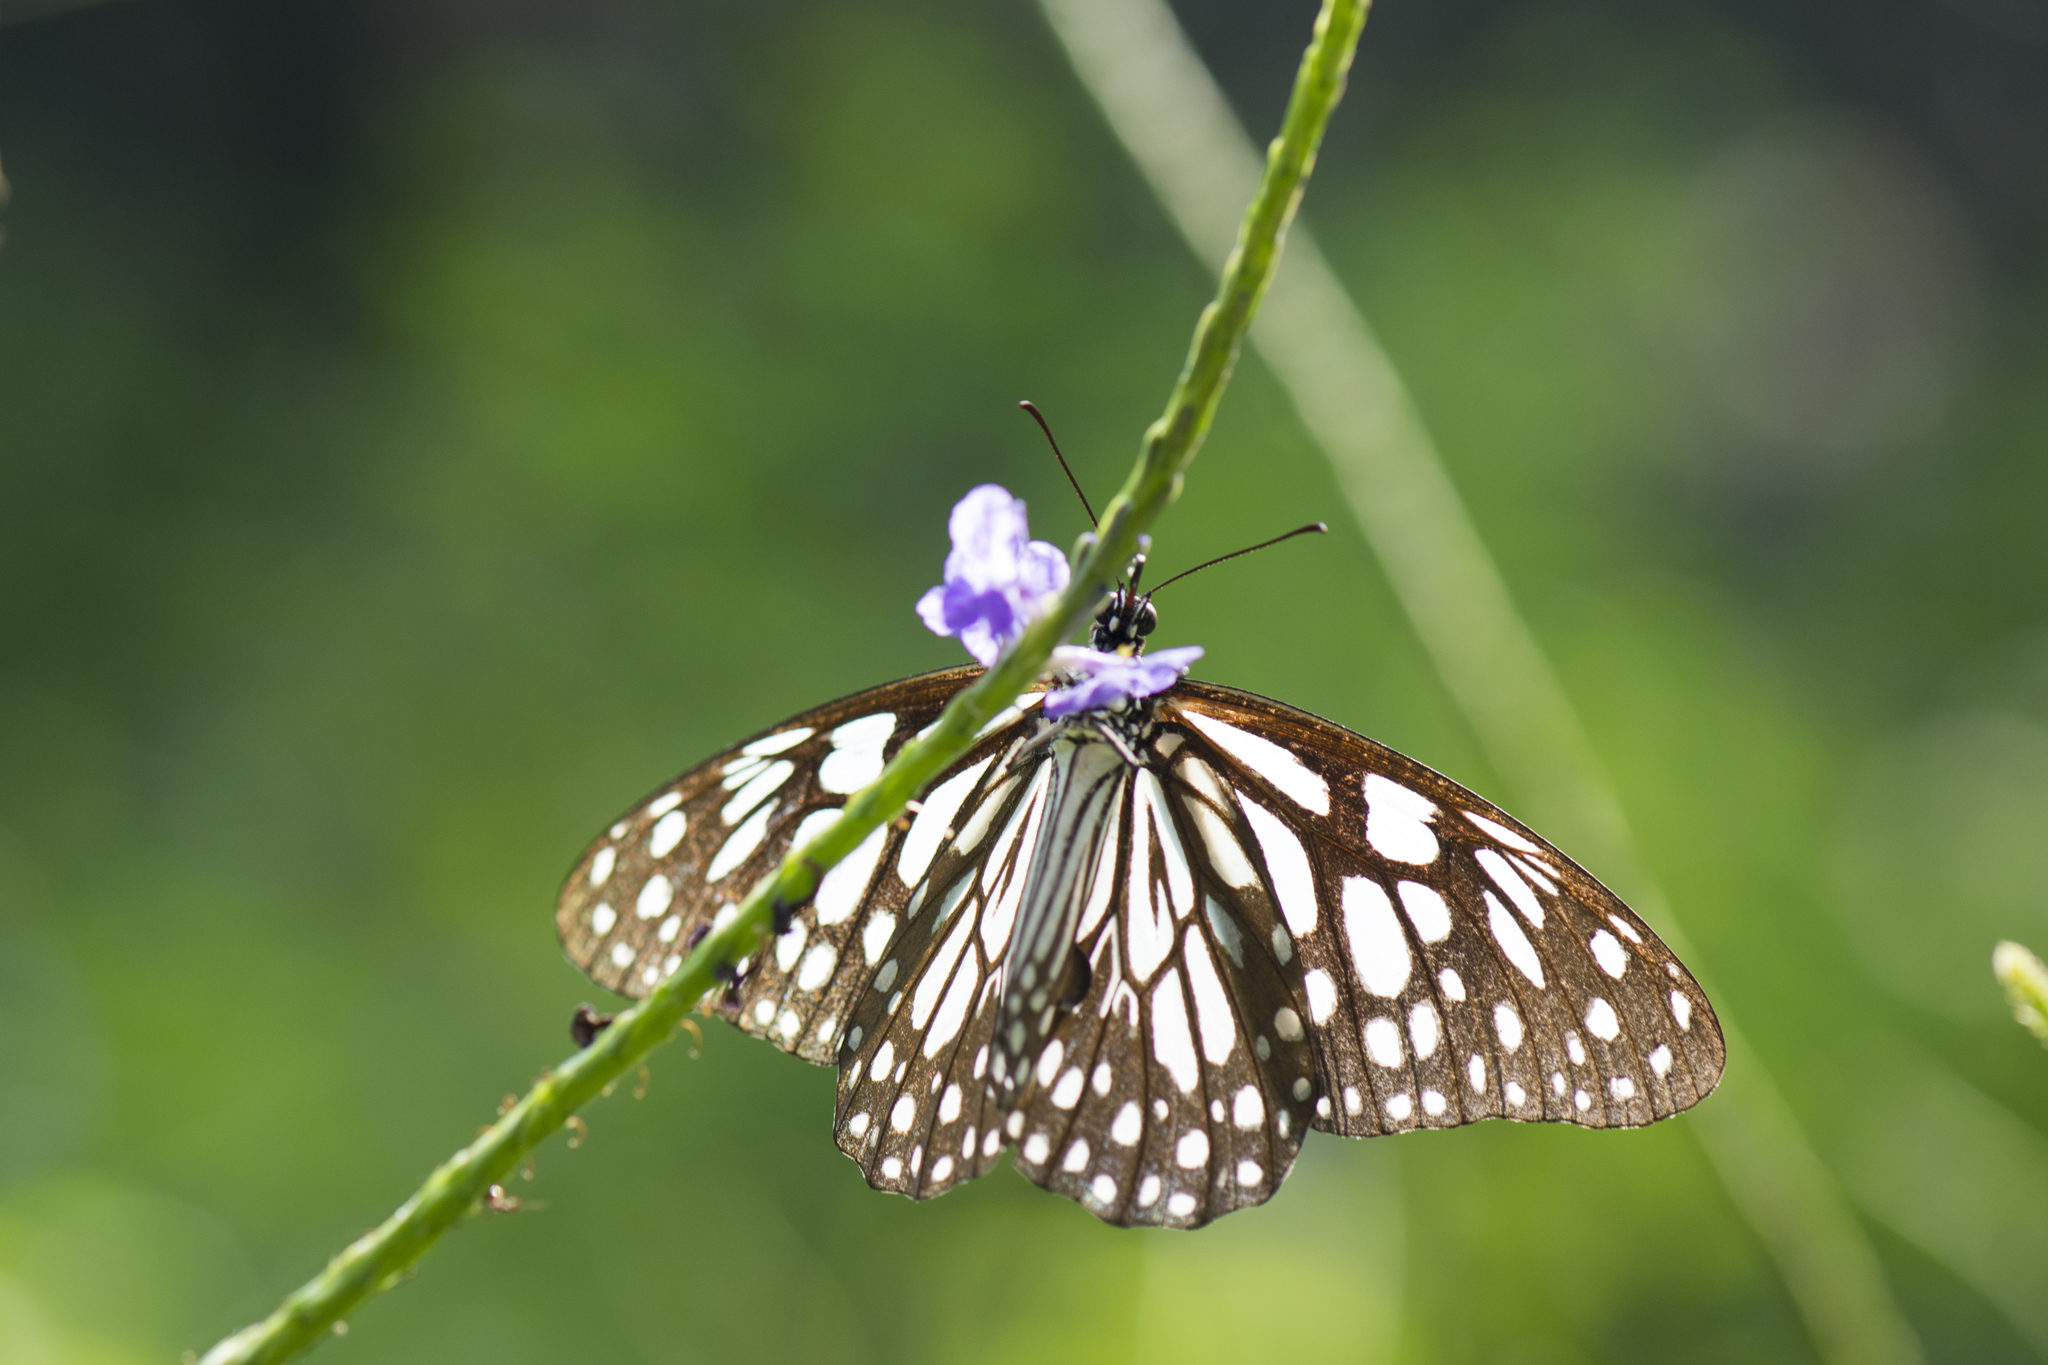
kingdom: Animalia
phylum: Arthropoda
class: Insecta
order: Lepidoptera
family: Nymphalidae
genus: Tirumala
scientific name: Tirumala limniace
